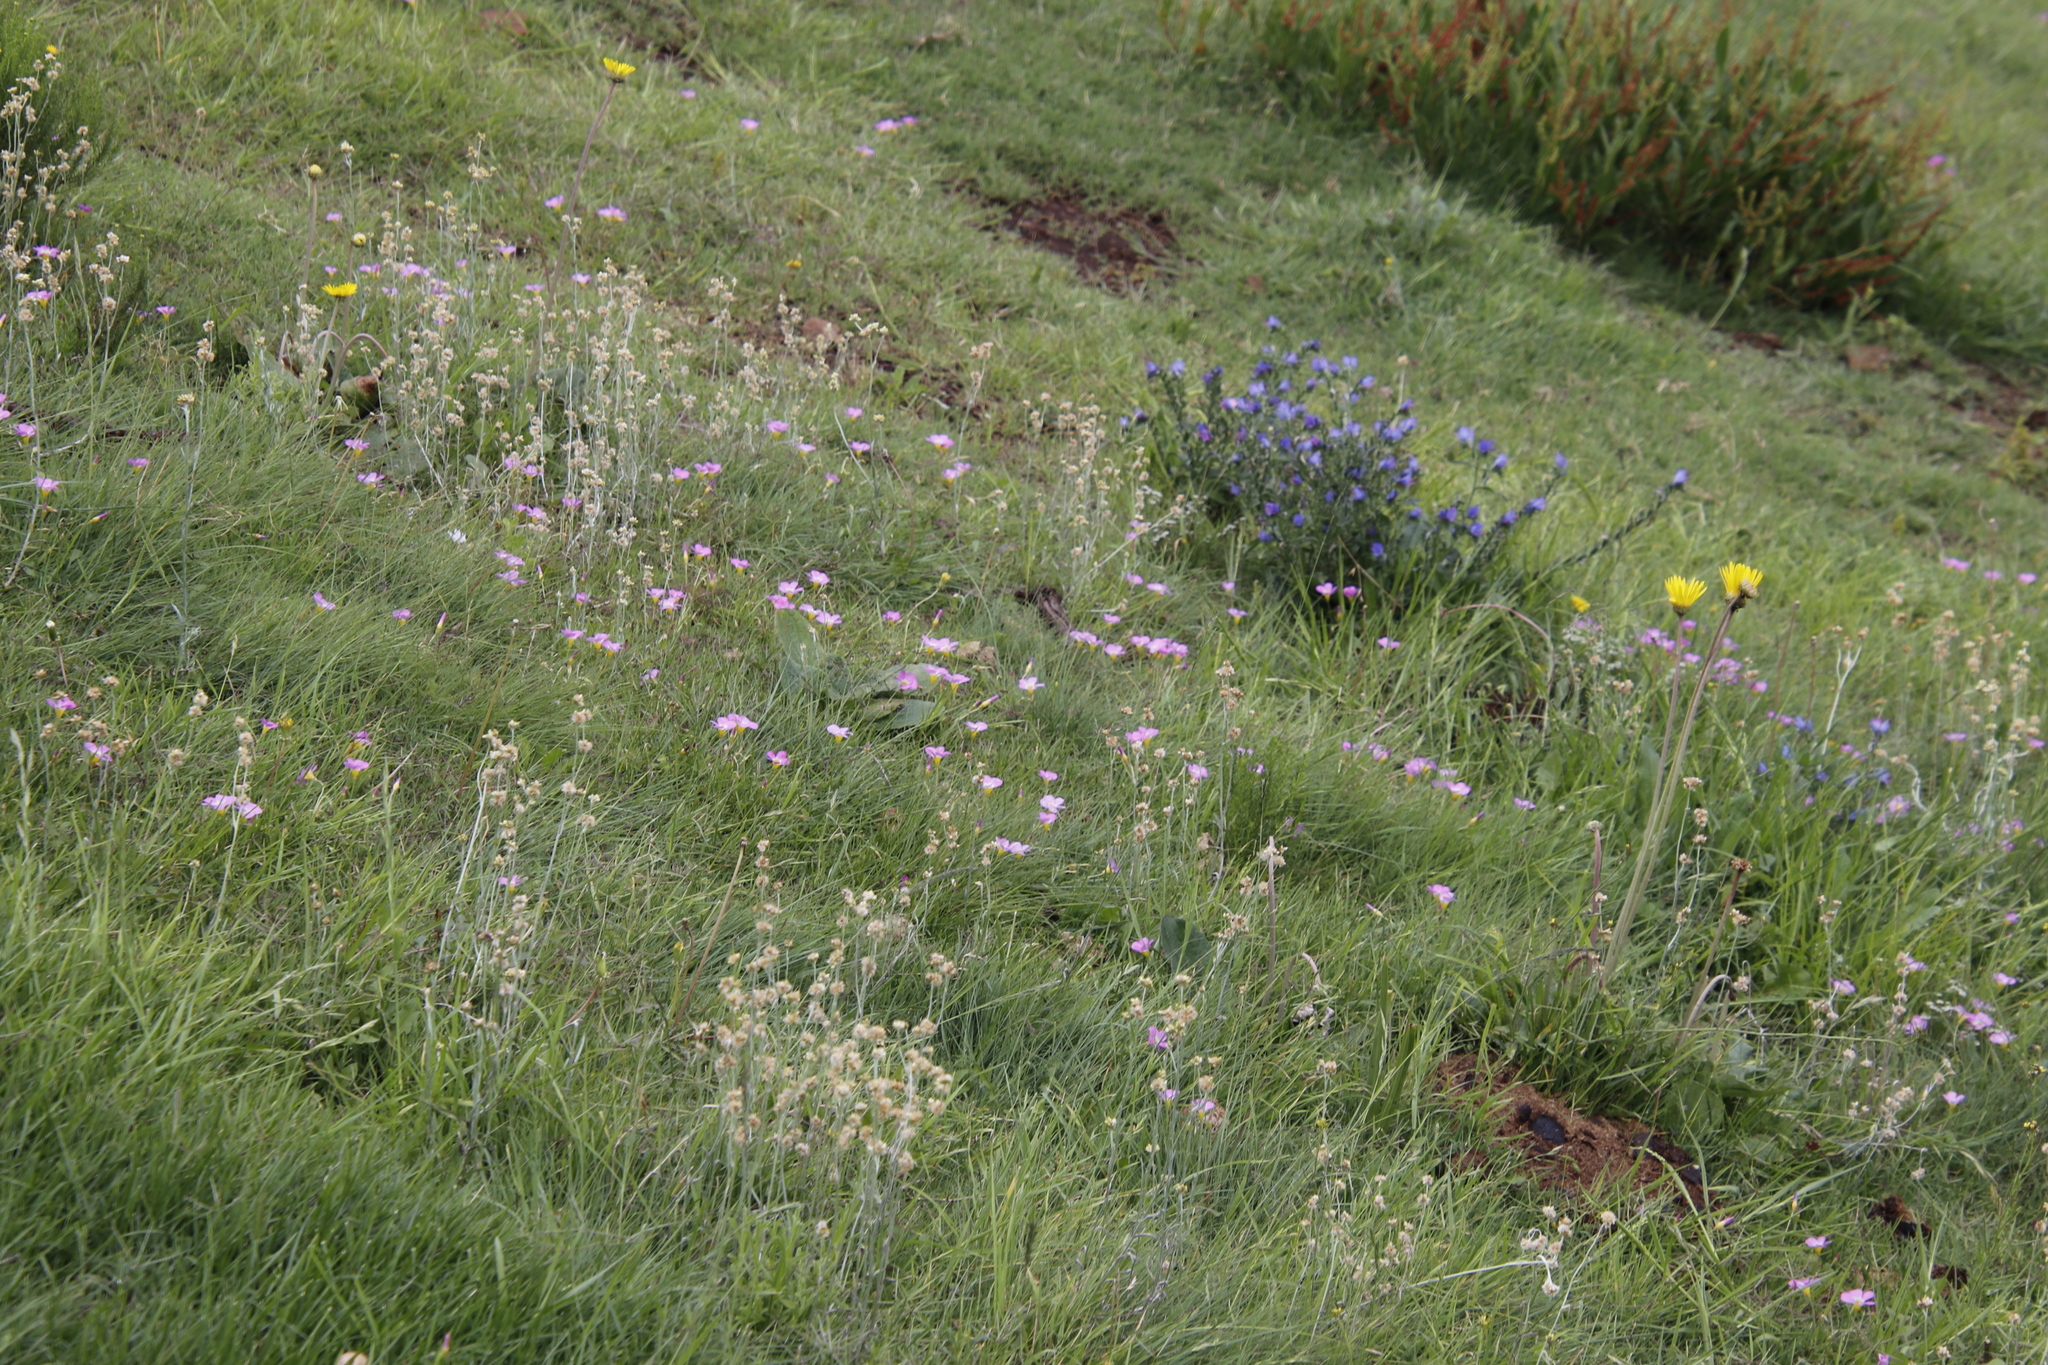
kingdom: Plantae
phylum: Tracheophyta
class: Magnoliopsida
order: Asterales
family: Asteraceae
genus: Helichrysum
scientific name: Helichrysum rugulosum
